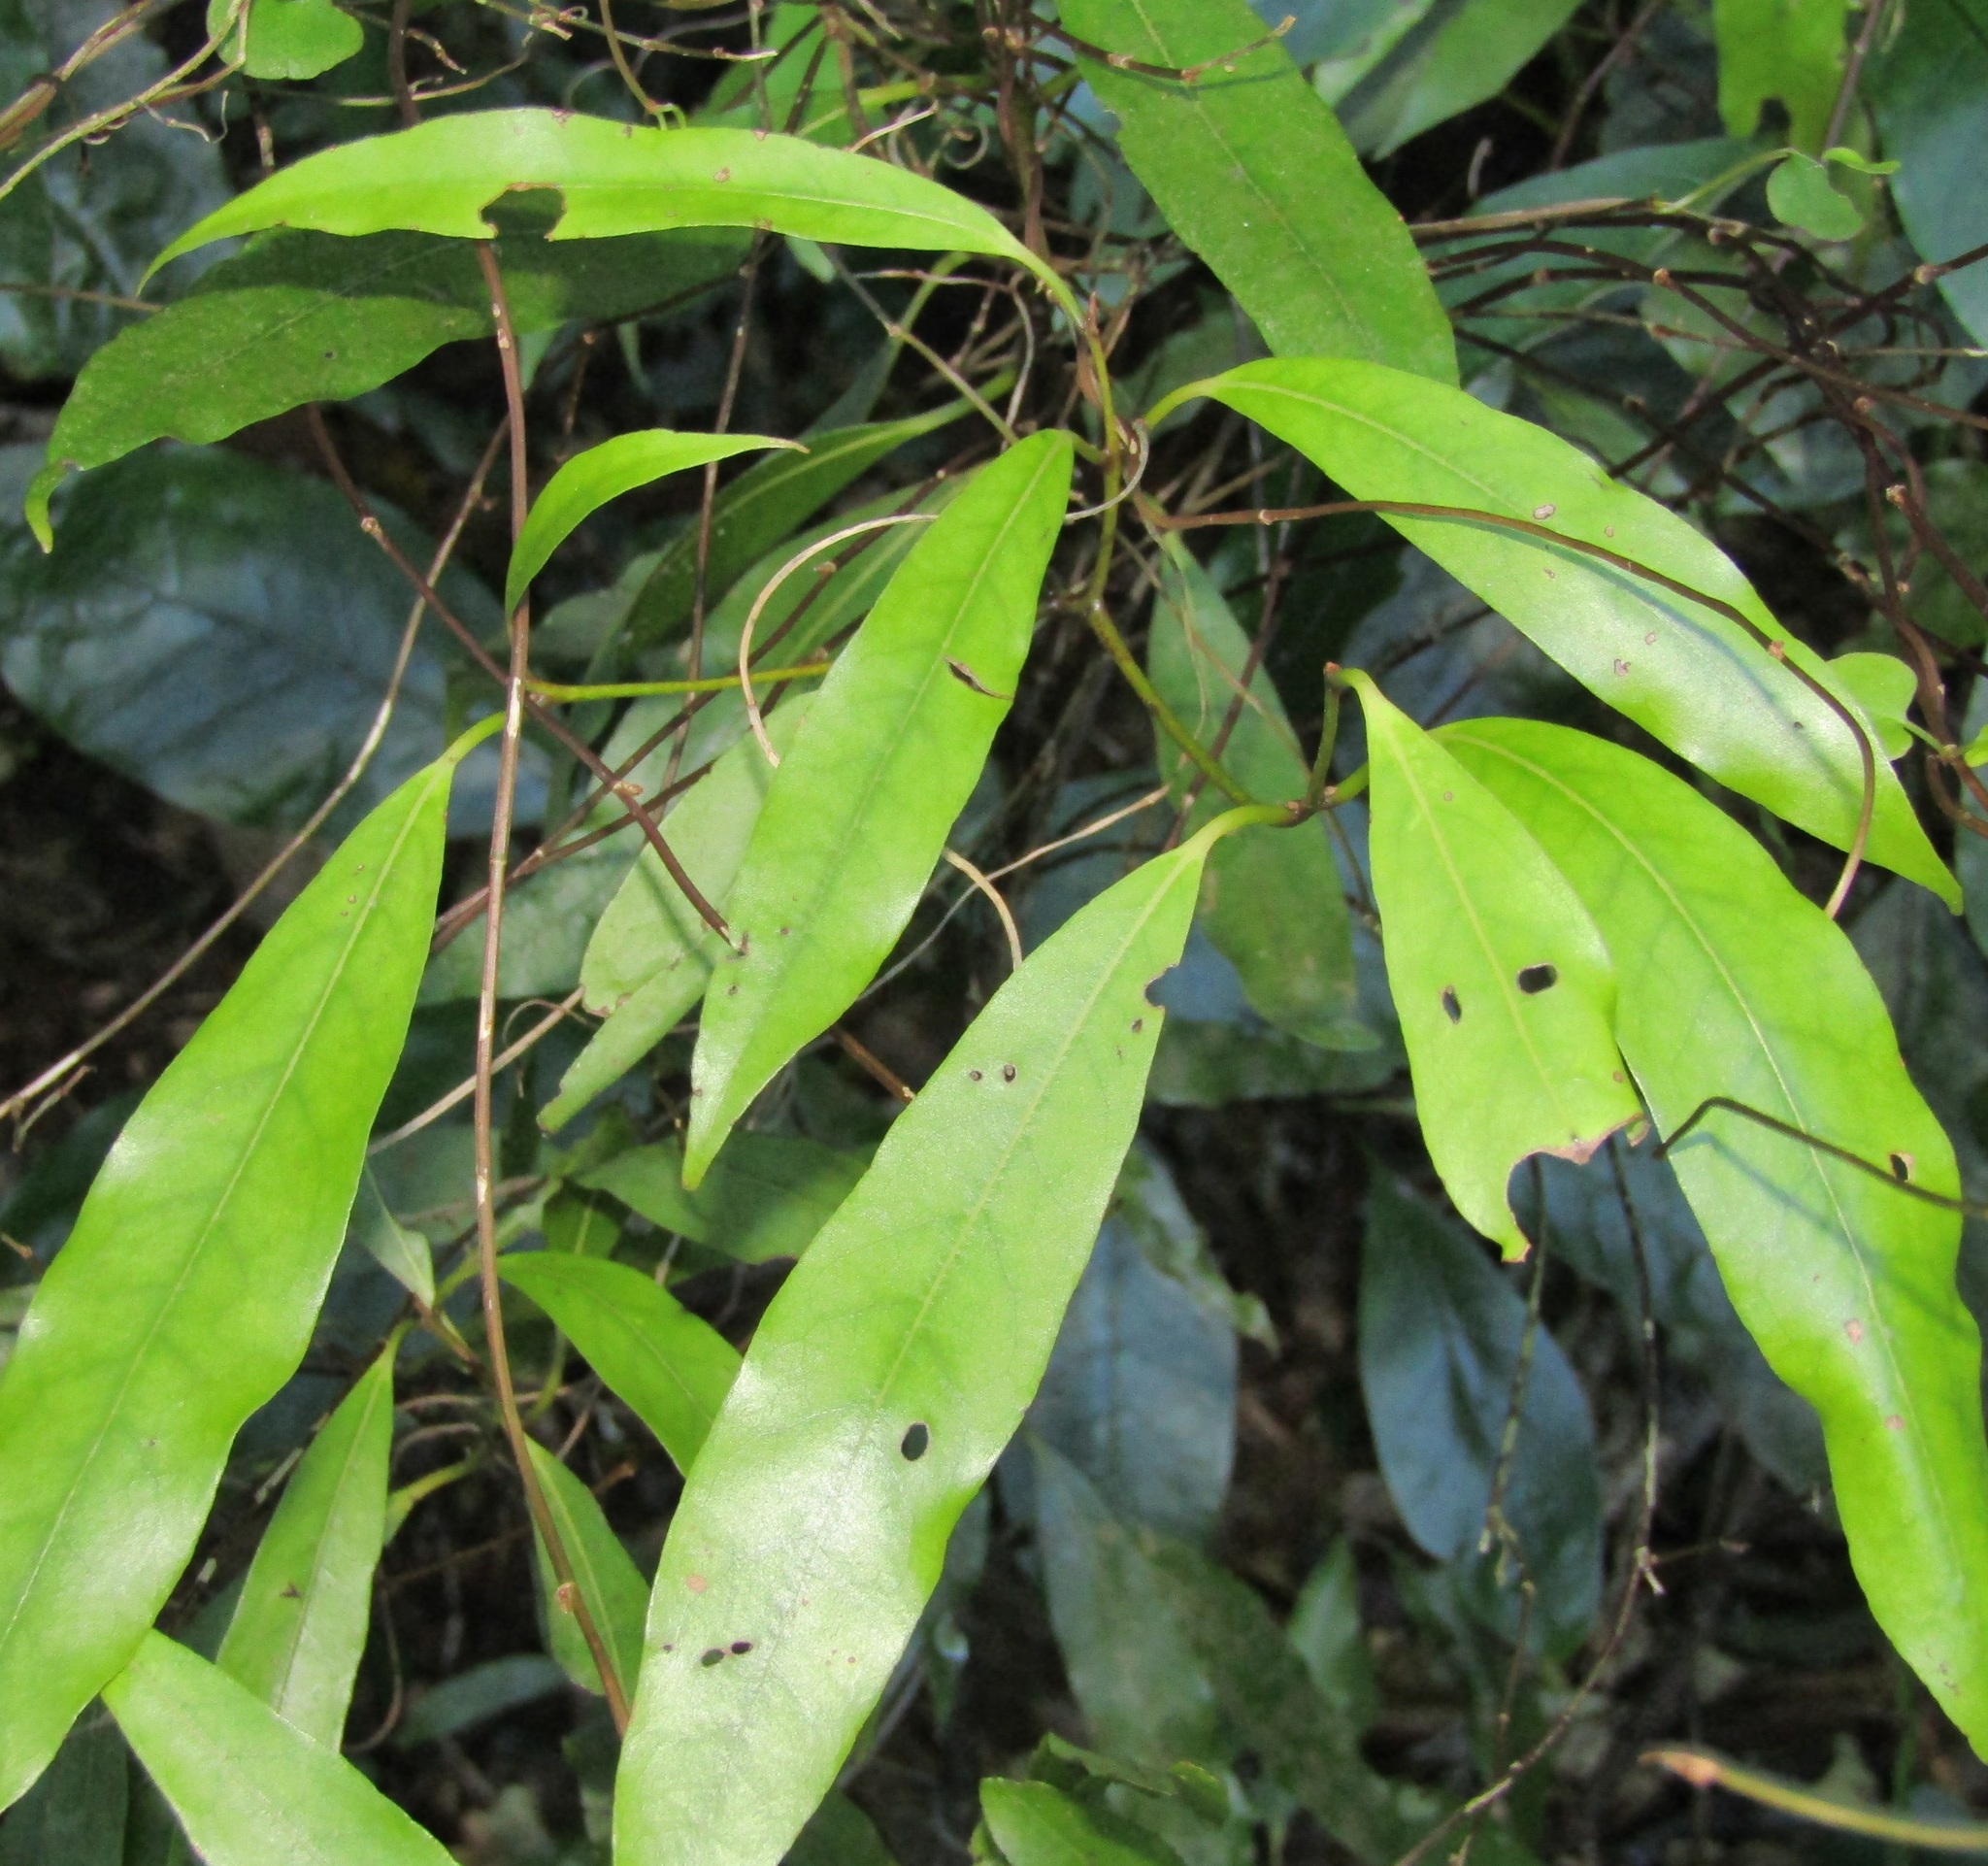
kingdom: Plantae
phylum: Tracheophyta
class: Magnoliopsida
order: Laurales
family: Lauraceae
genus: Beilschmiedia
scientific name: Beilschmiedia tawa
